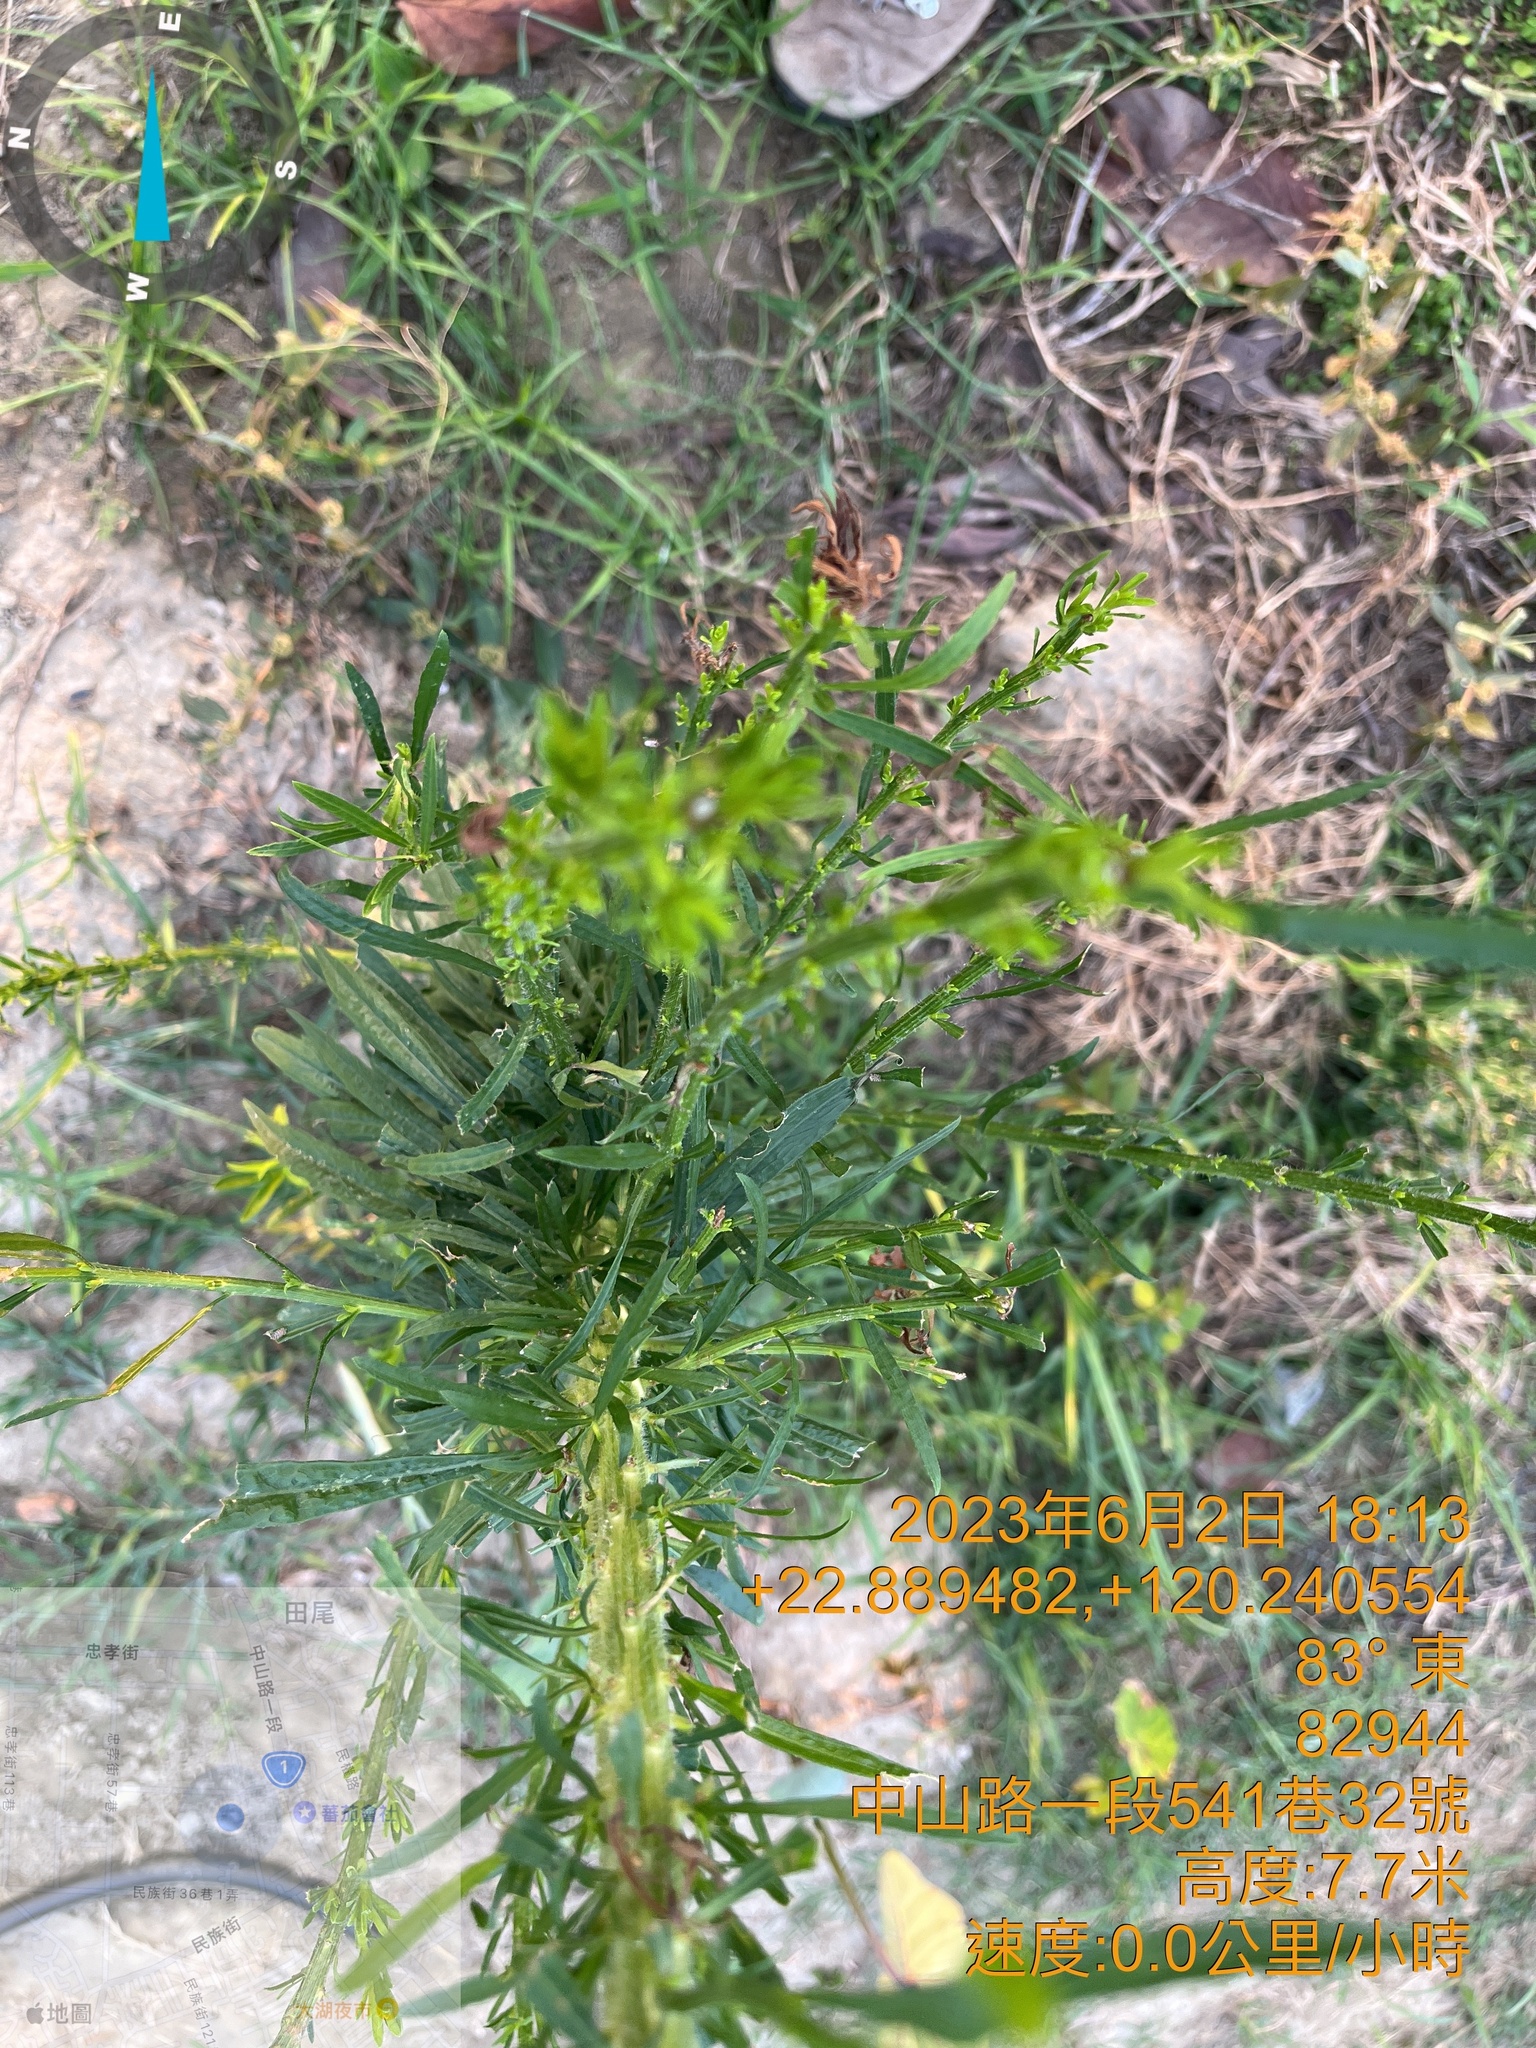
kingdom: Plantae
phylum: Tracheophyta
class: Magnoliopsida
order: Brassicales
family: Brassicaceae
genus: Lepidium
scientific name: Lepidium virginicum
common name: Least pepperwort
